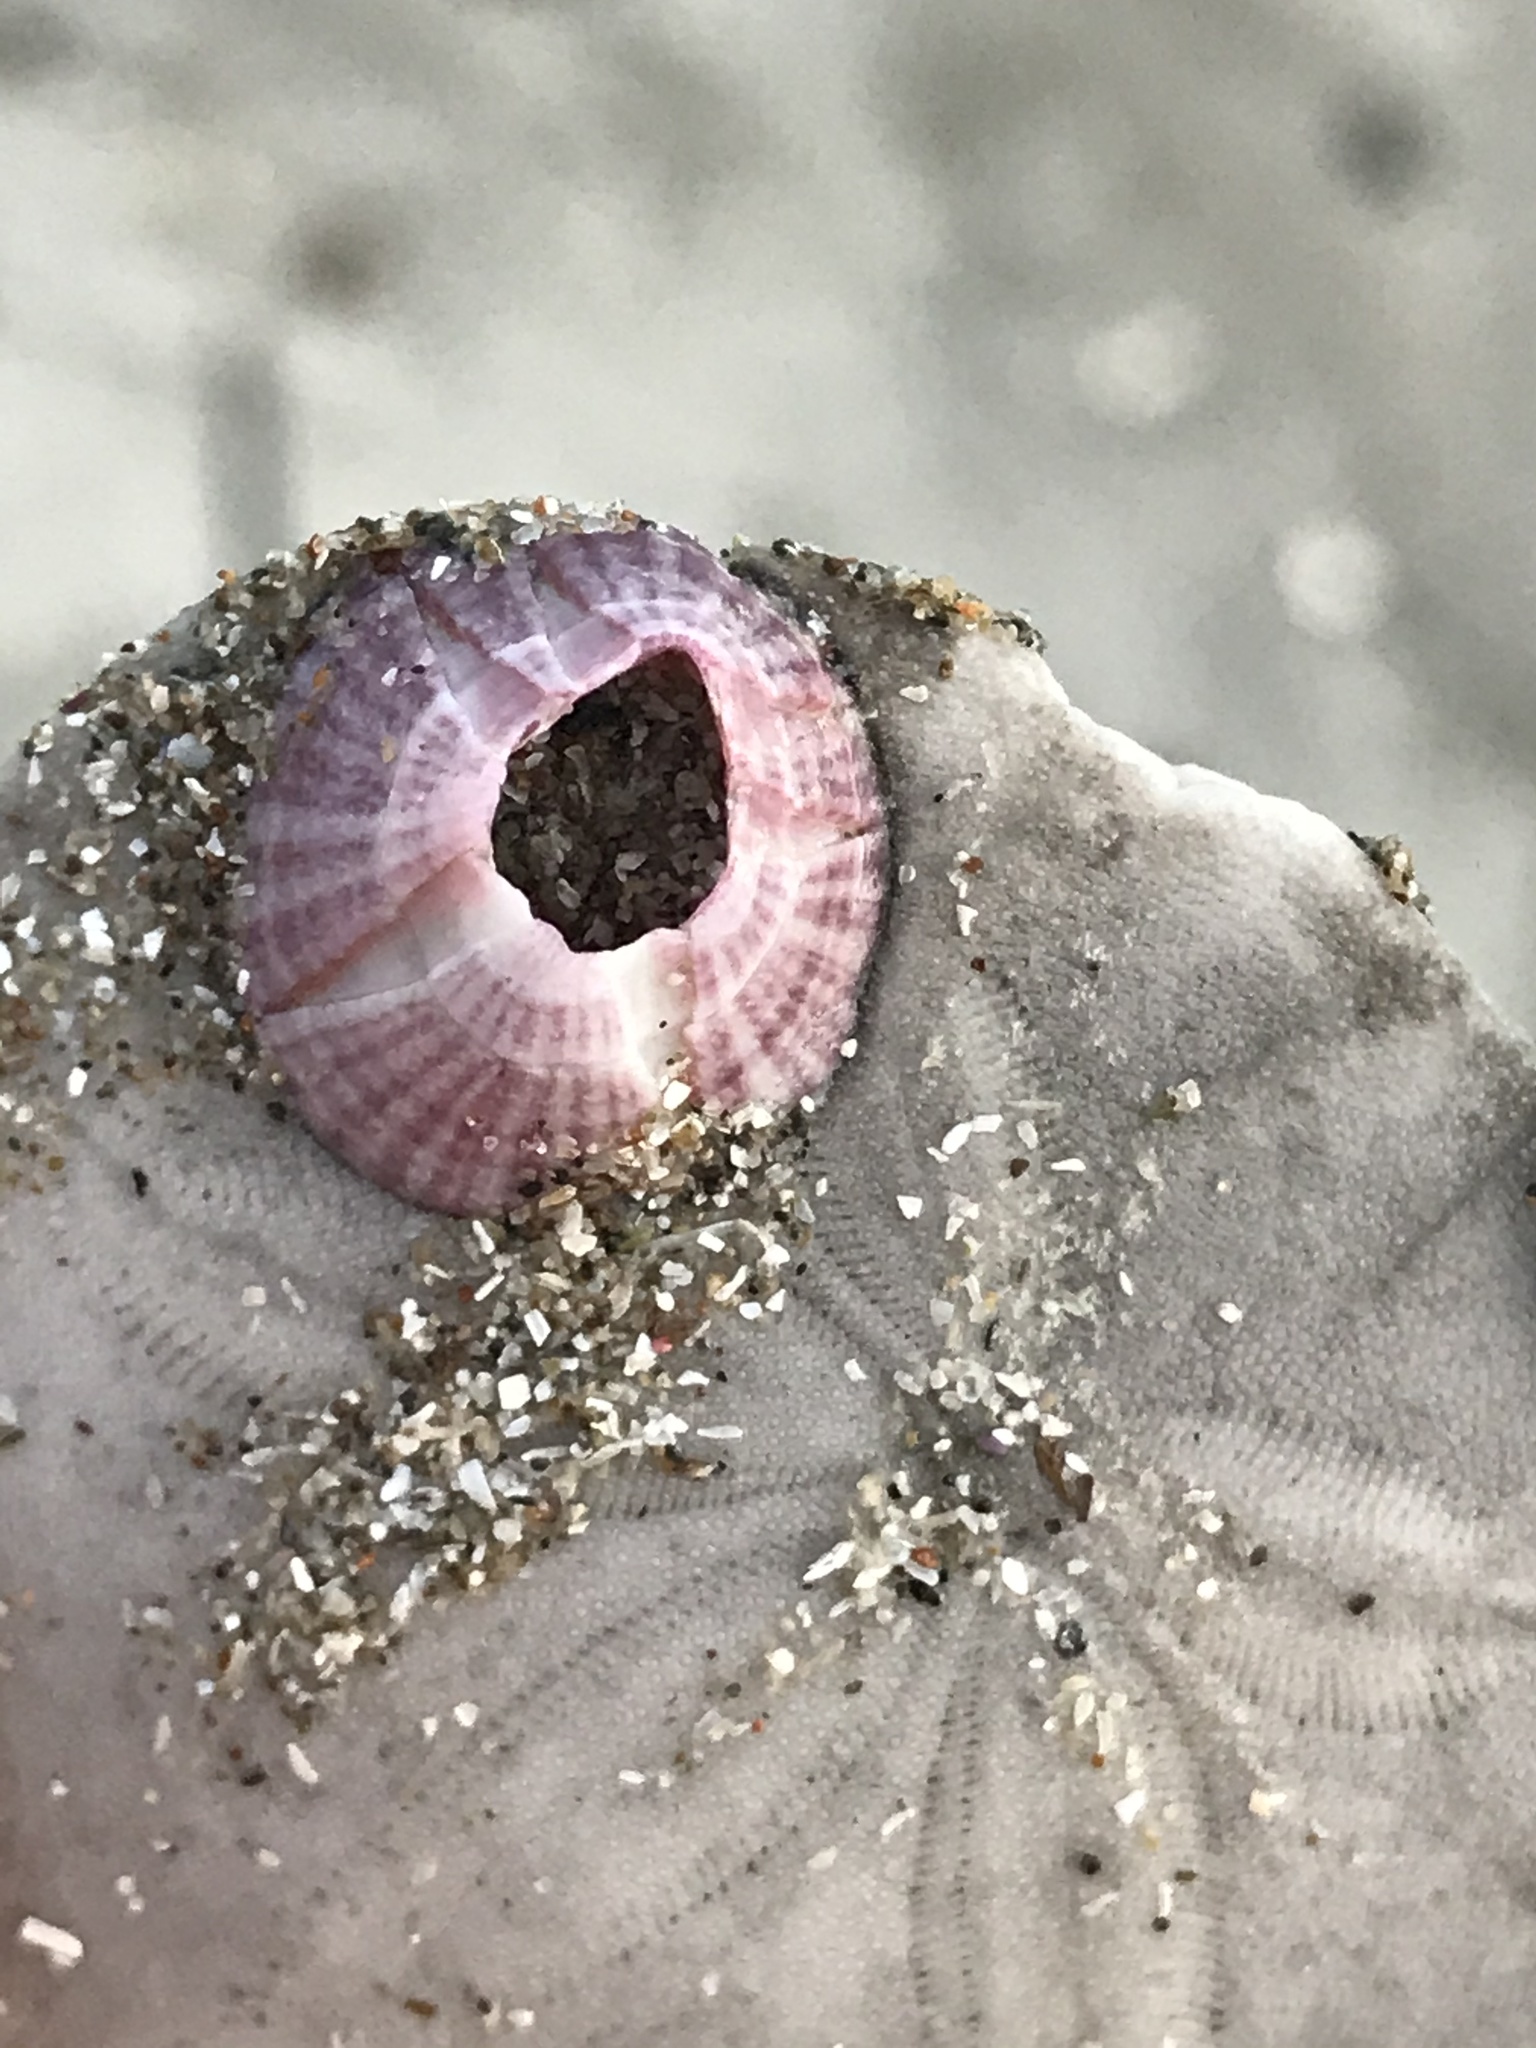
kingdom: Animalia
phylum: Arthropoda
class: Maxillopoda
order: Sessilia
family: Balanidae
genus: Paraconcavus
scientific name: Paraconcavus pacificus
